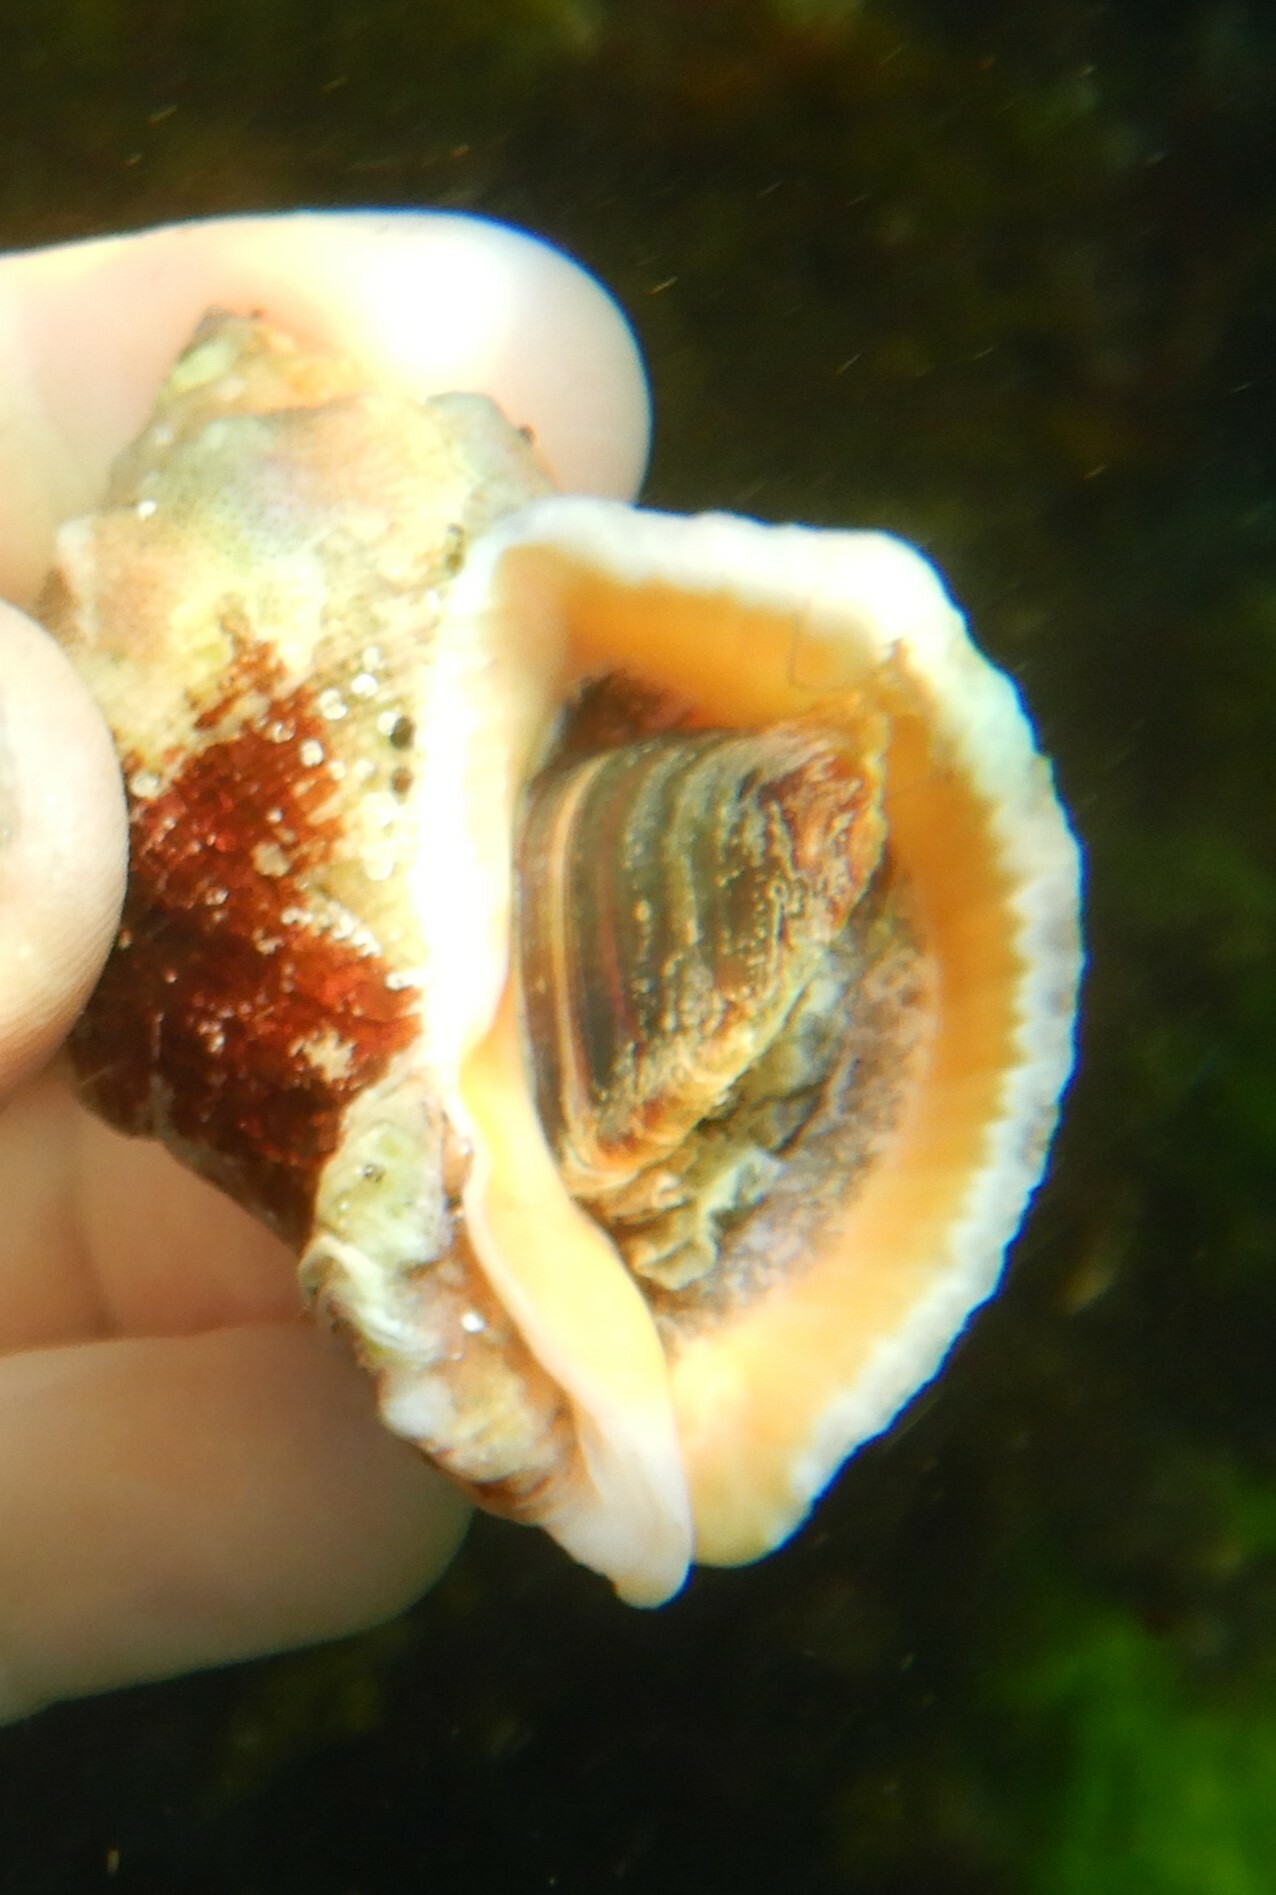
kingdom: Animalia
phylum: Mollusca
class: Gastropoda
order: Neogastropoda
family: Muricidae
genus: Rapana
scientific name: Rapana venosa
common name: Veined rapa whelk
